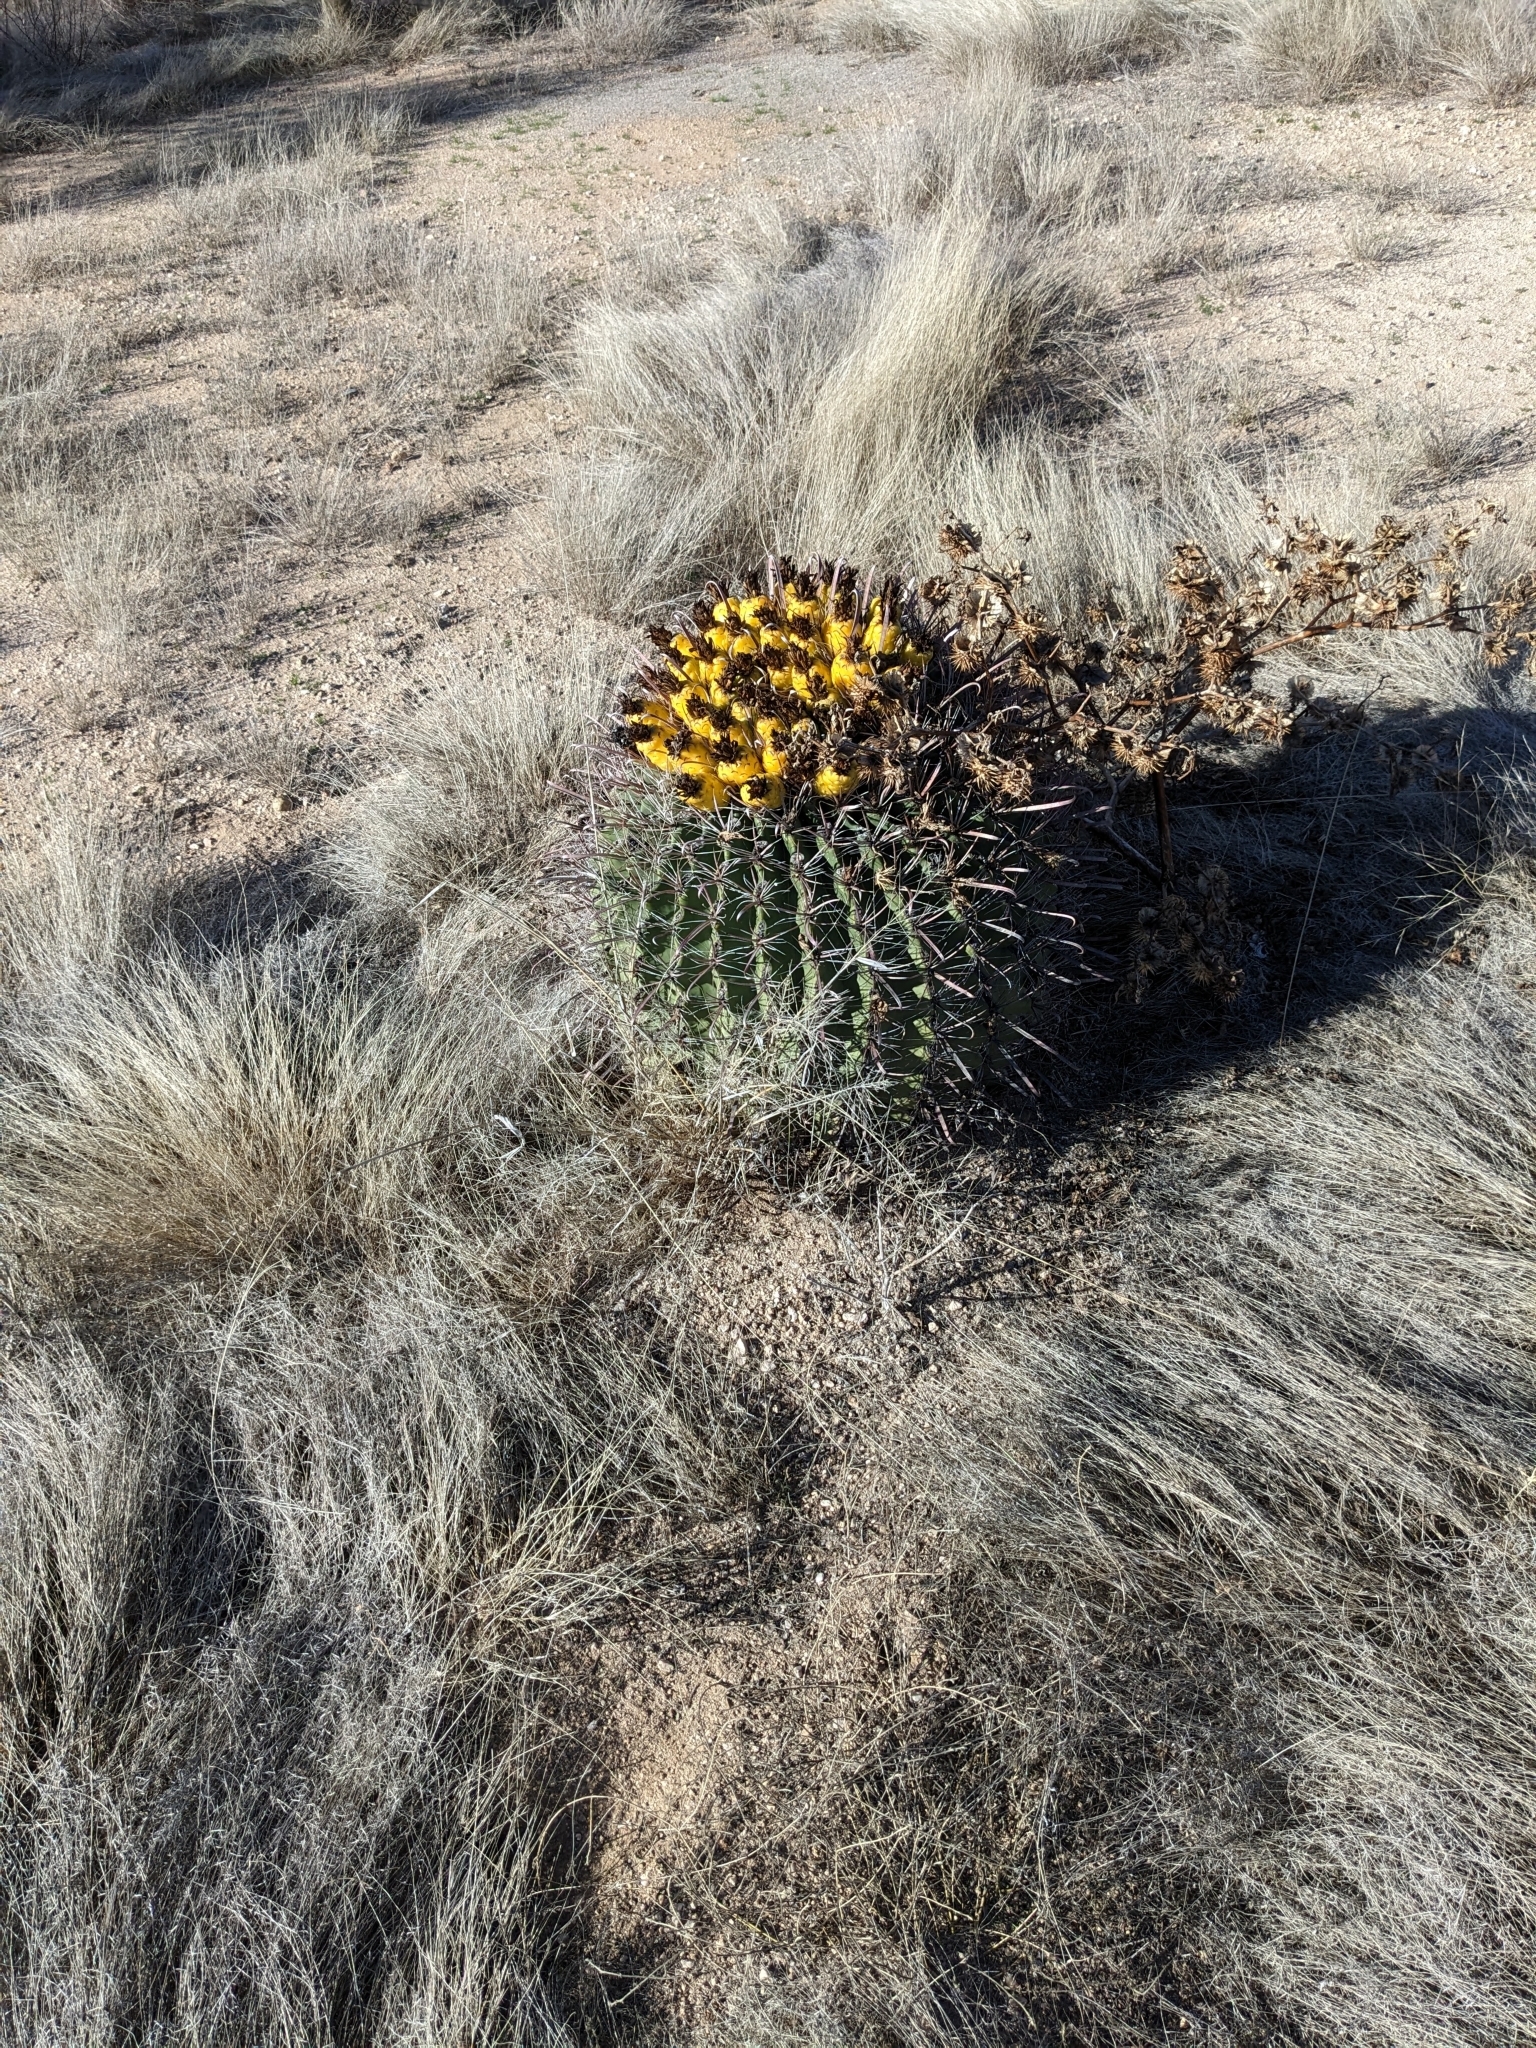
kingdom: Plantae
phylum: Tracheophyta
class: Magnoliopsida
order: Caryophyllales
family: Cactaceae
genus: Ferocactus
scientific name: Ferocactus wislizeni
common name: Candy barrel cactus
